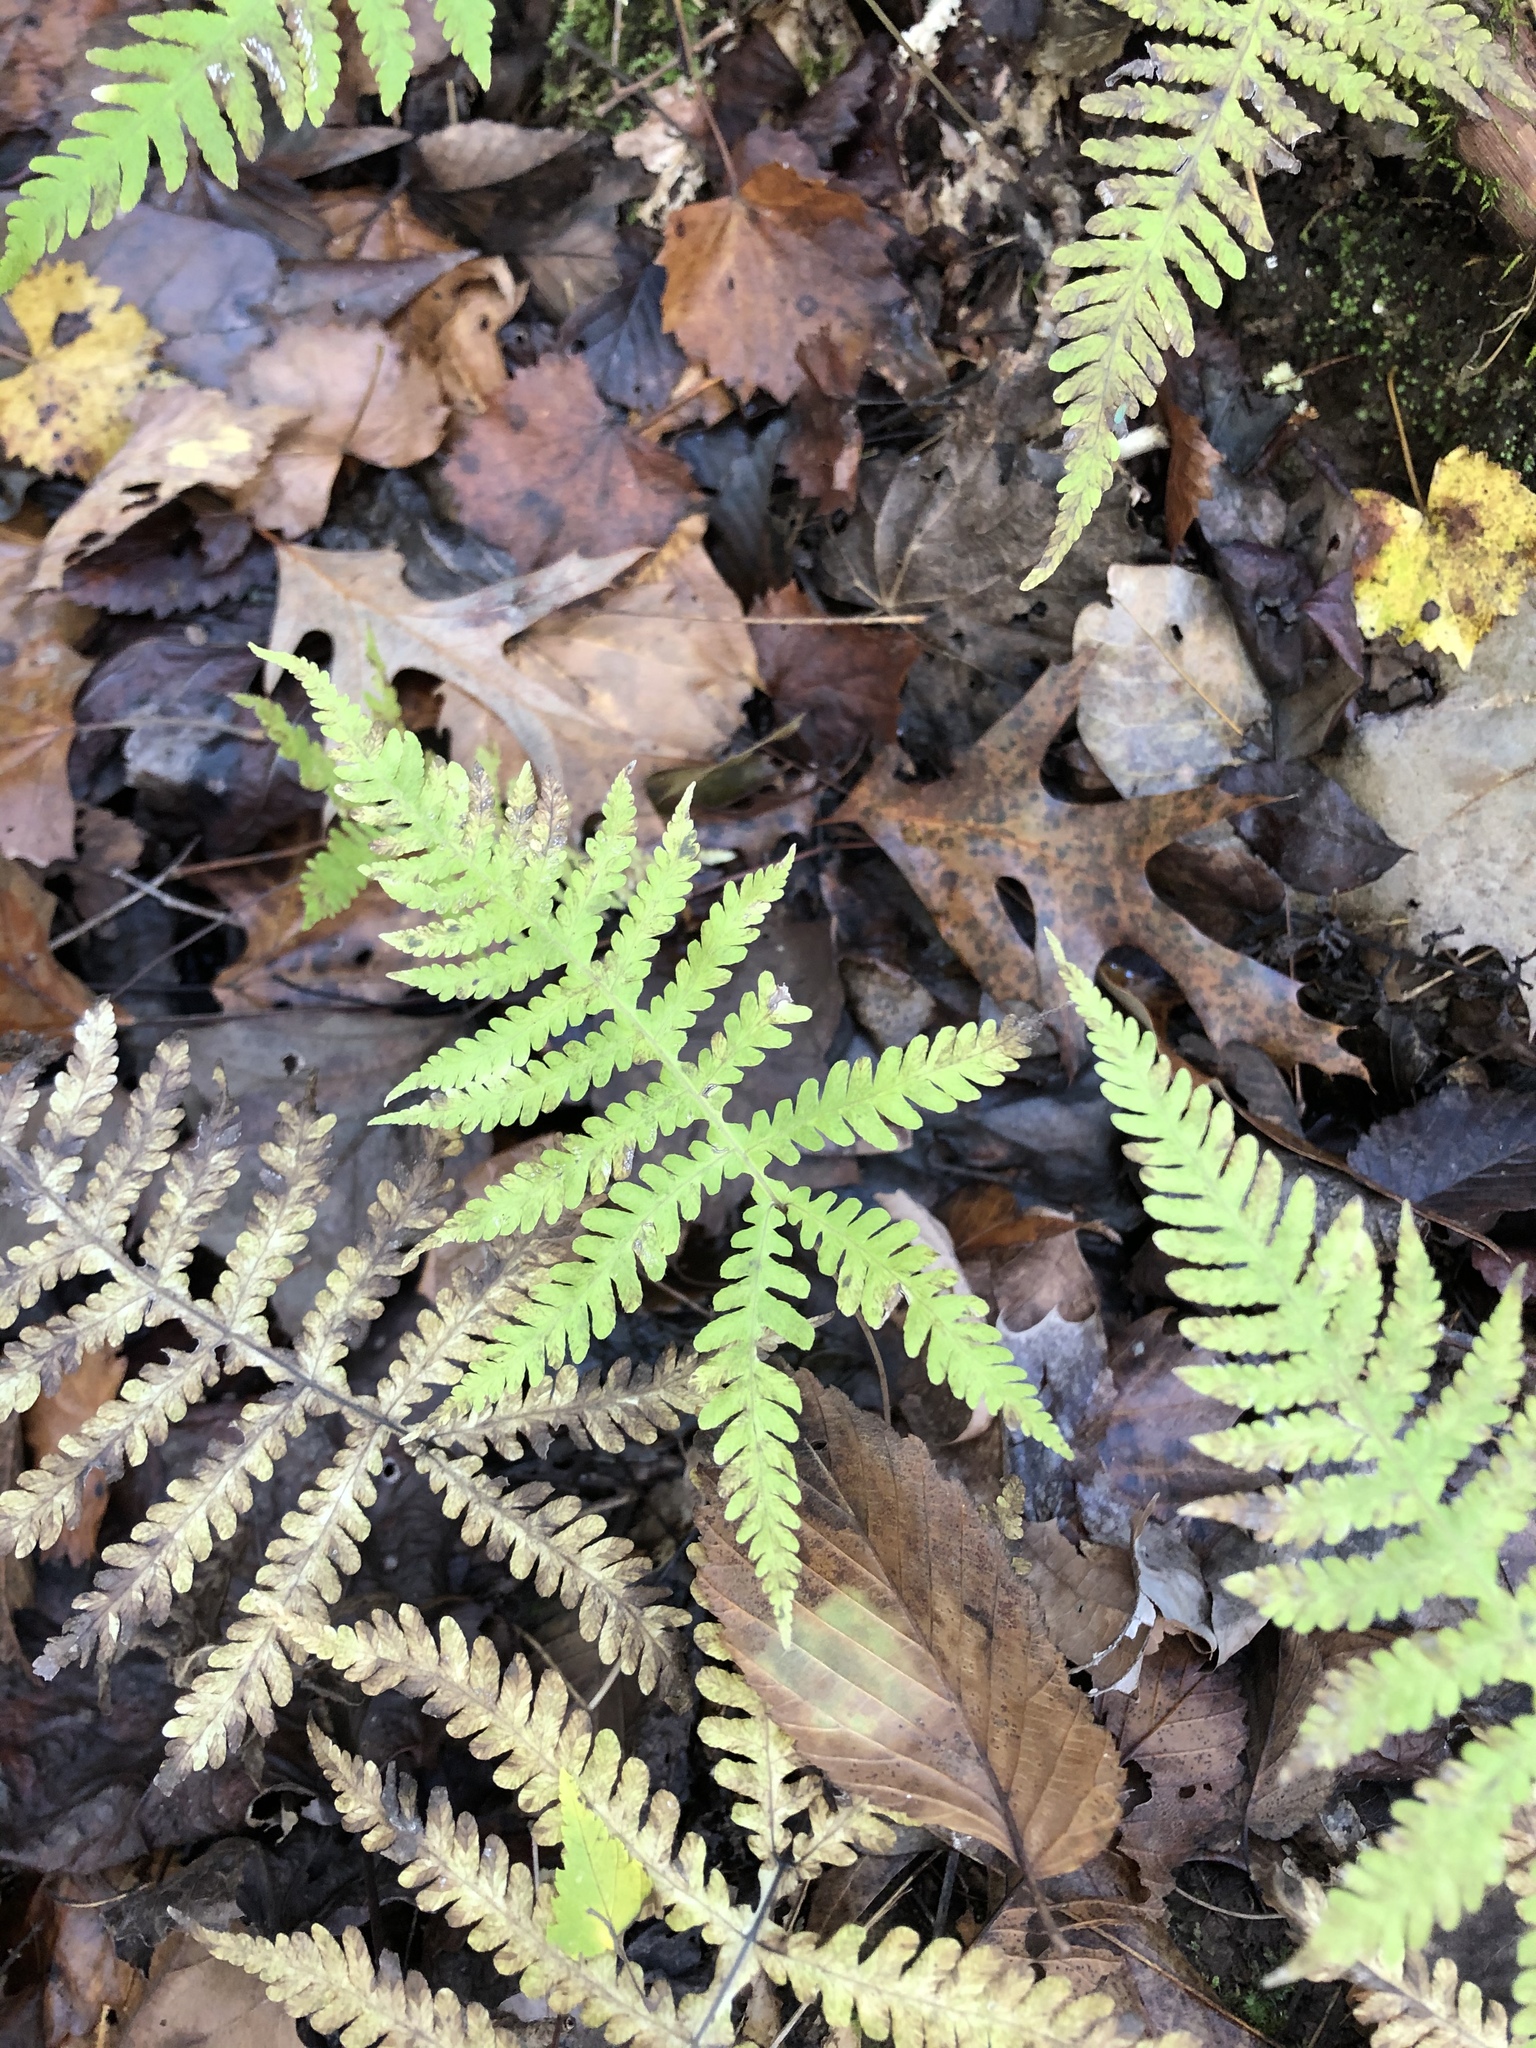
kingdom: Plantae
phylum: Tracheophyta
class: Polypodiopsida
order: Polypodiales
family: Thelypteridaceae
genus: Phegopteris
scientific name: Phegopteris hexagonoptera
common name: Broad beech fern
